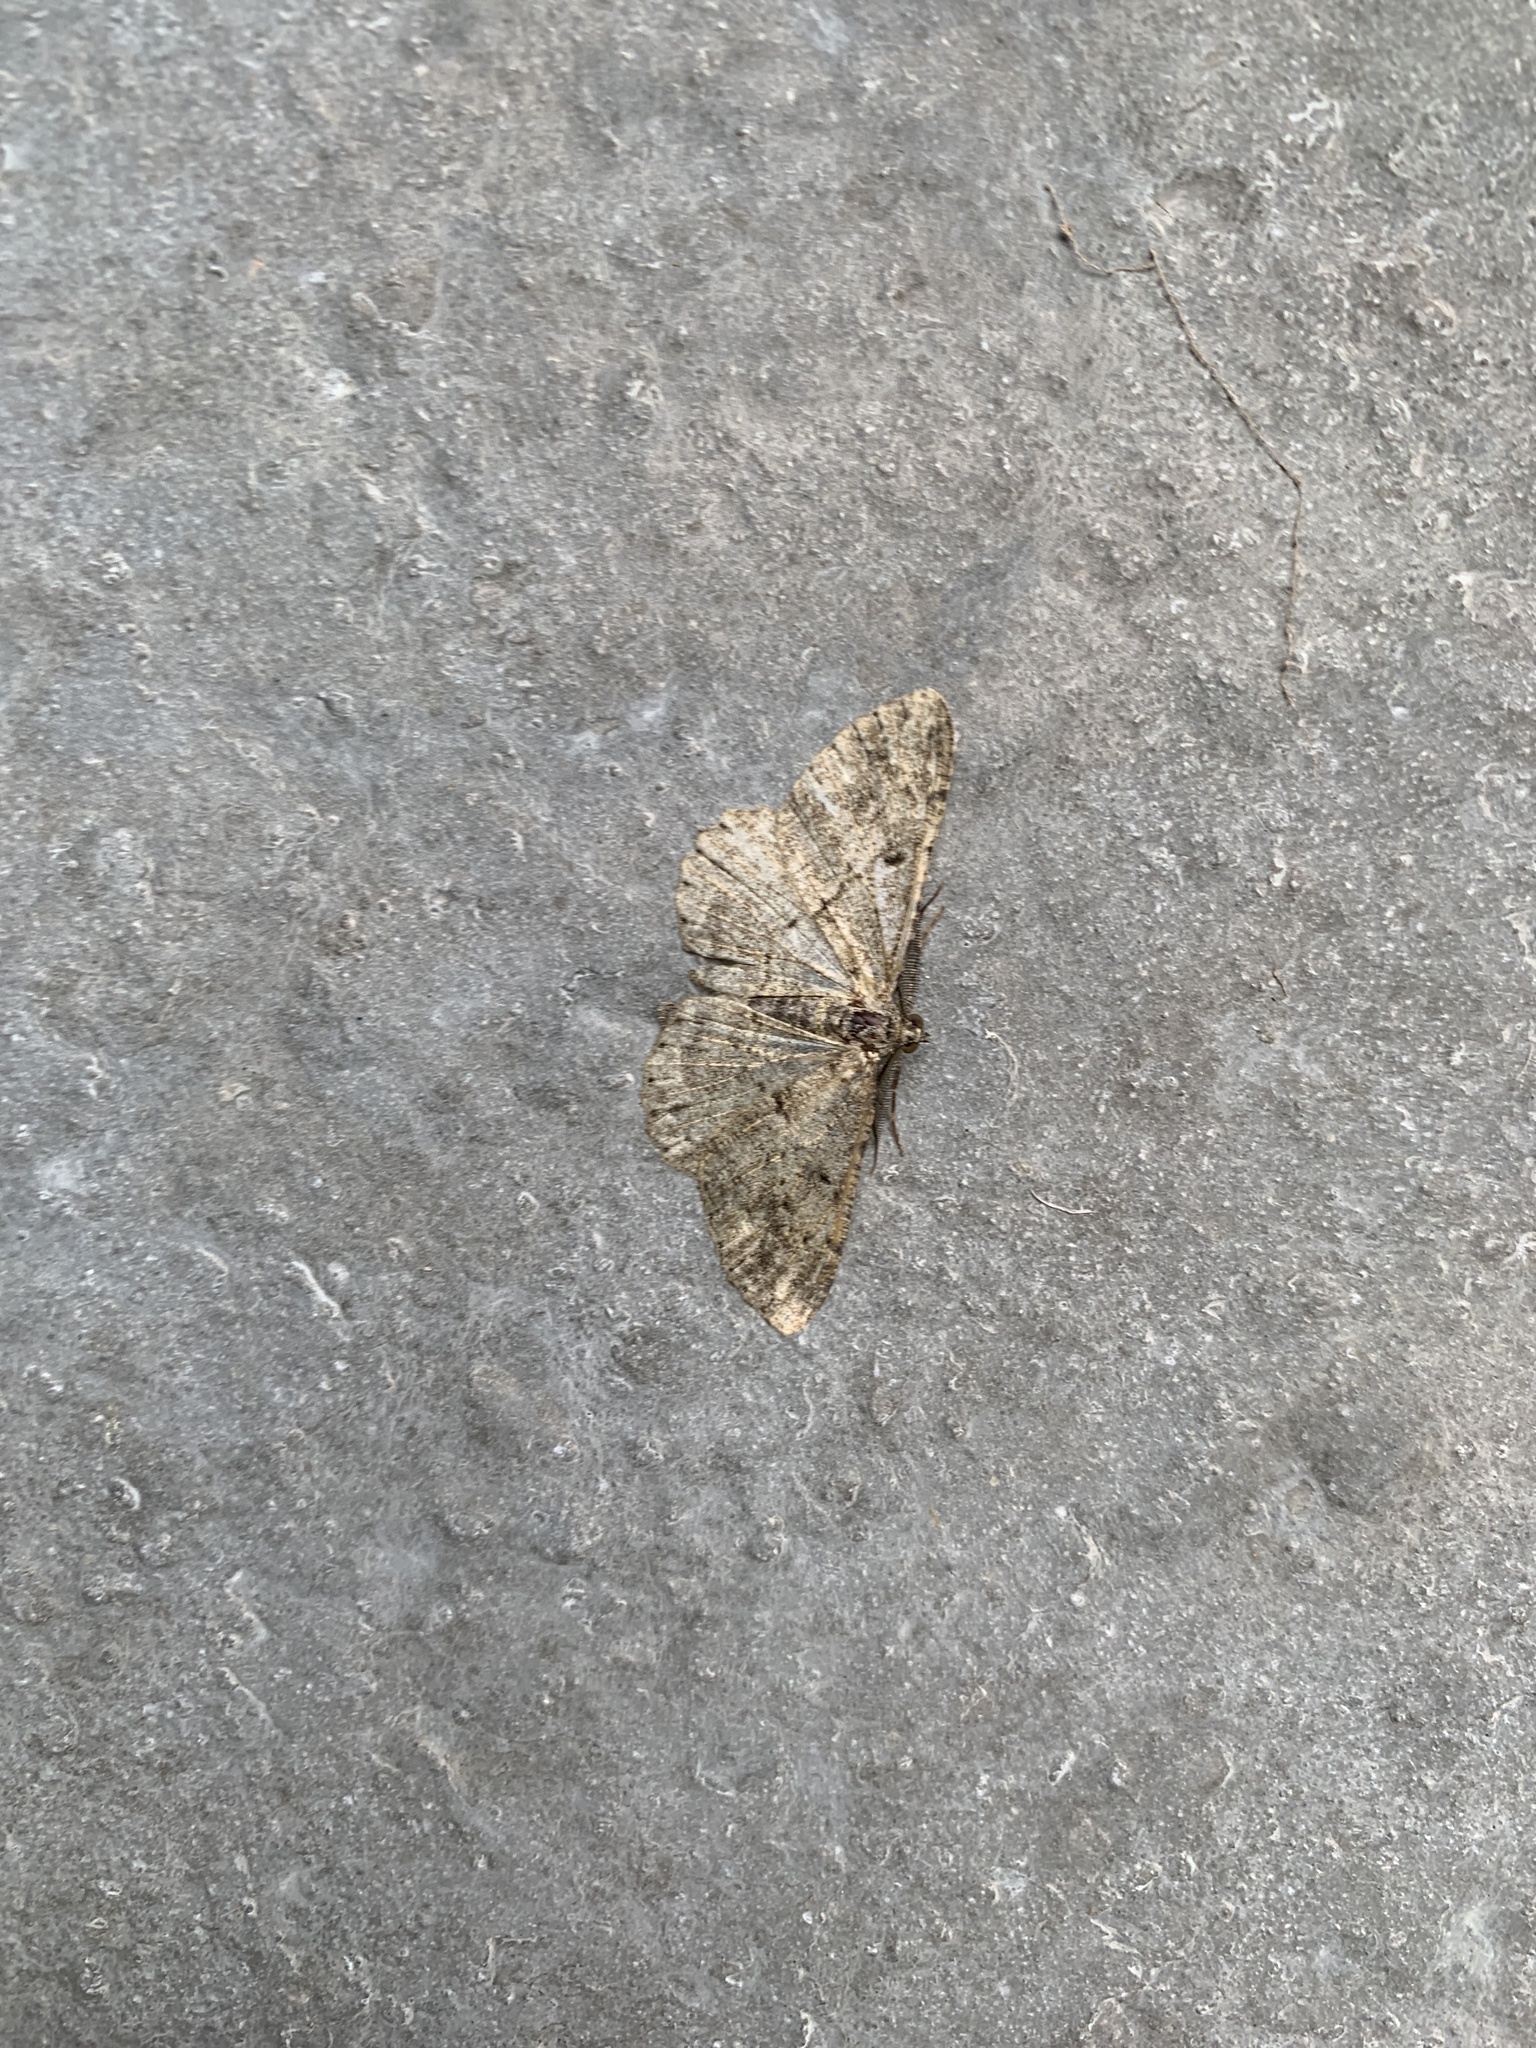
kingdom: Animalia
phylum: Arthropoda
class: Insecta
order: Lepidoptera
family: Geometridae
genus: Peribatodes
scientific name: Peribatodes rhomboidaria
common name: Willow beauty
